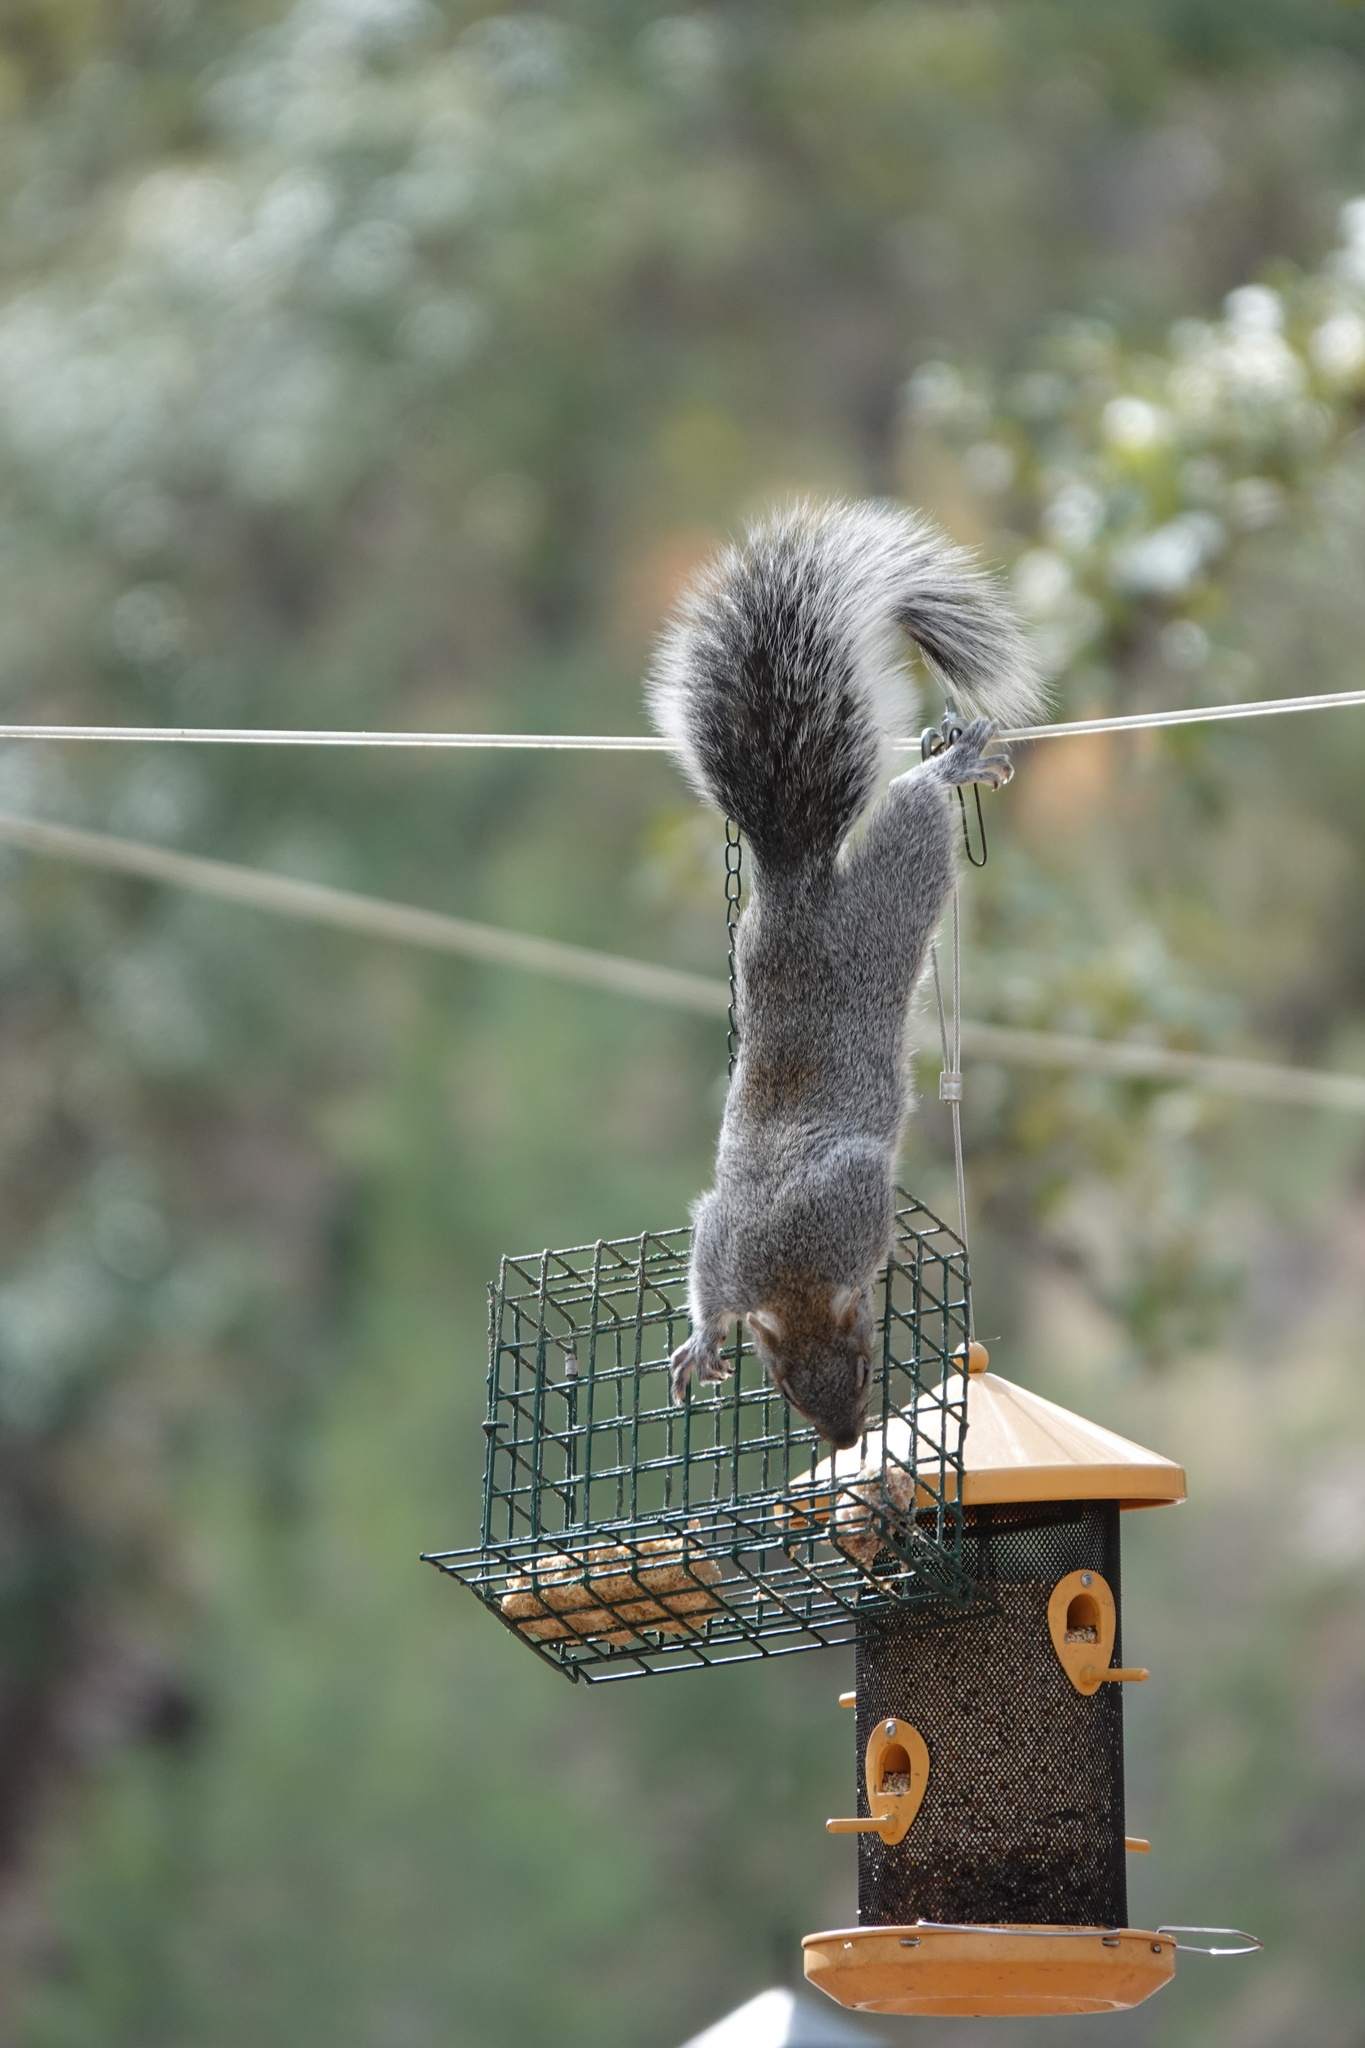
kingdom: Animalia
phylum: Chordata
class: Mammalia
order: Rodentia
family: Sciuridae
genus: Sciurus
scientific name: Sciurus arizonensis
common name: Arizona gray squirrel
